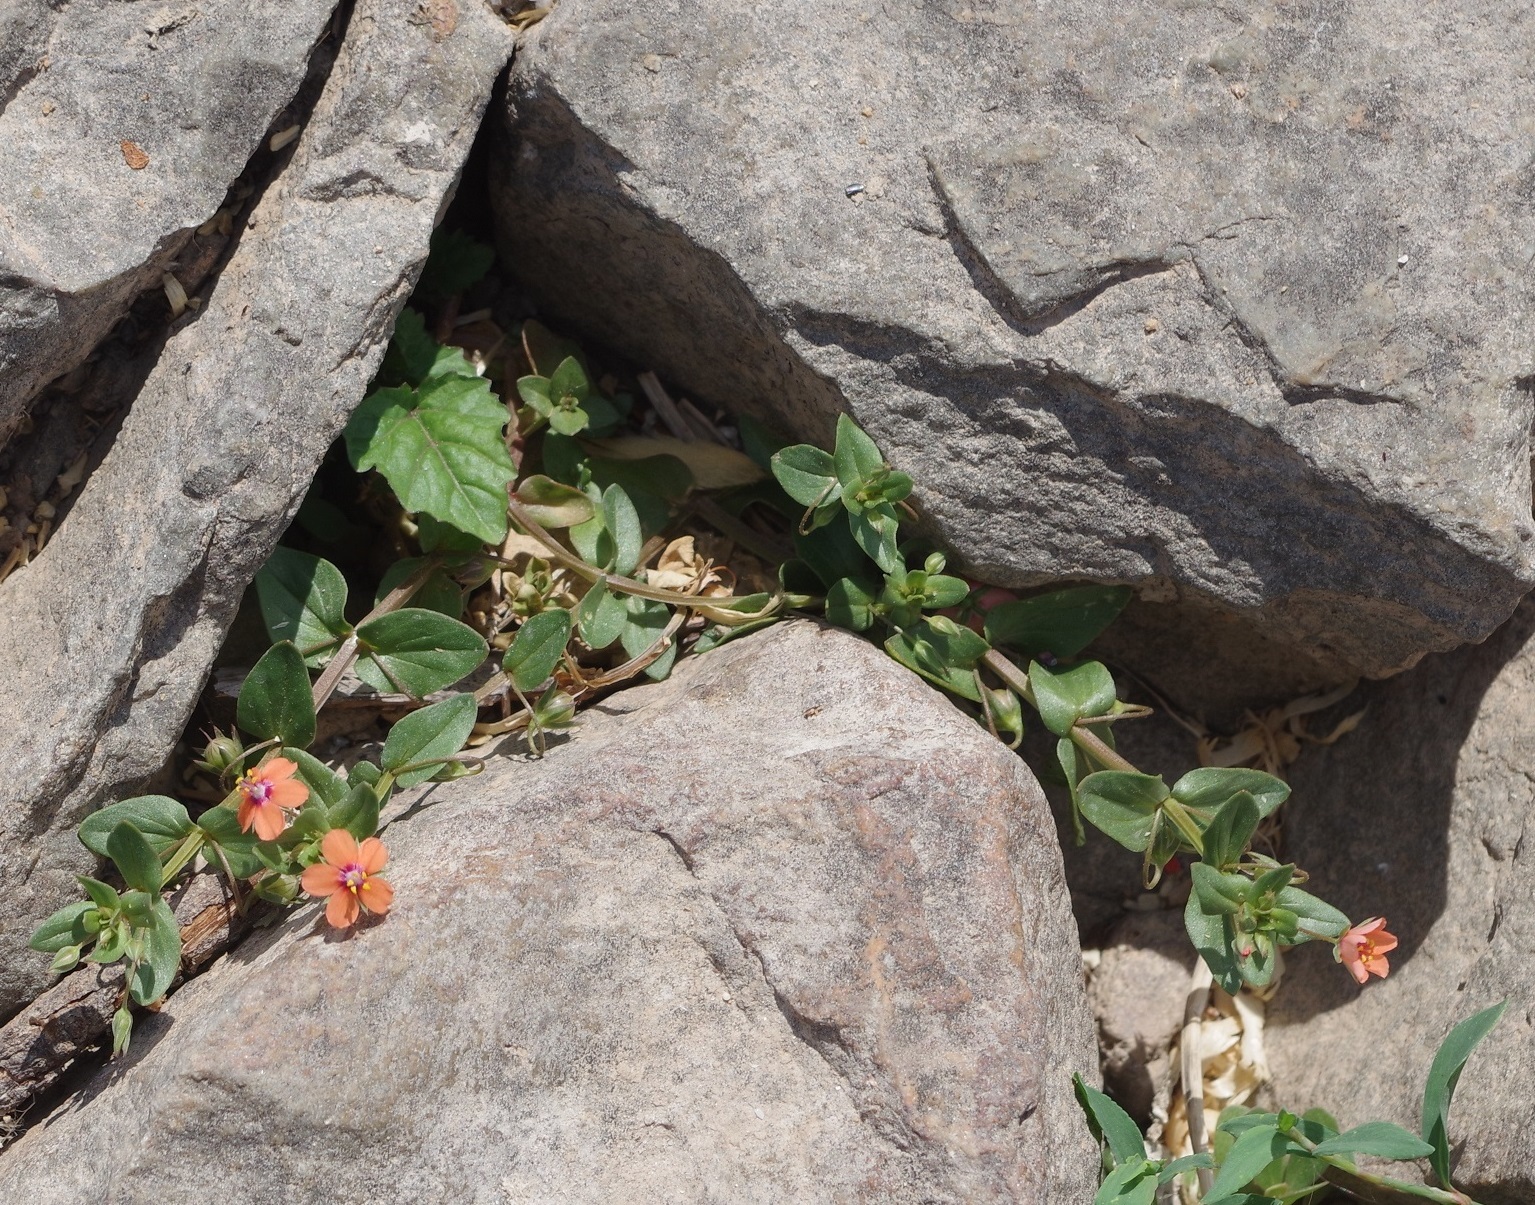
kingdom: Plantae
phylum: Tracheophyta
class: Magnoliopsida
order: Ericales
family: Primulaceae
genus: Lysimachia
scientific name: Lysimachia arvensis
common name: Scarlet pimpernel
